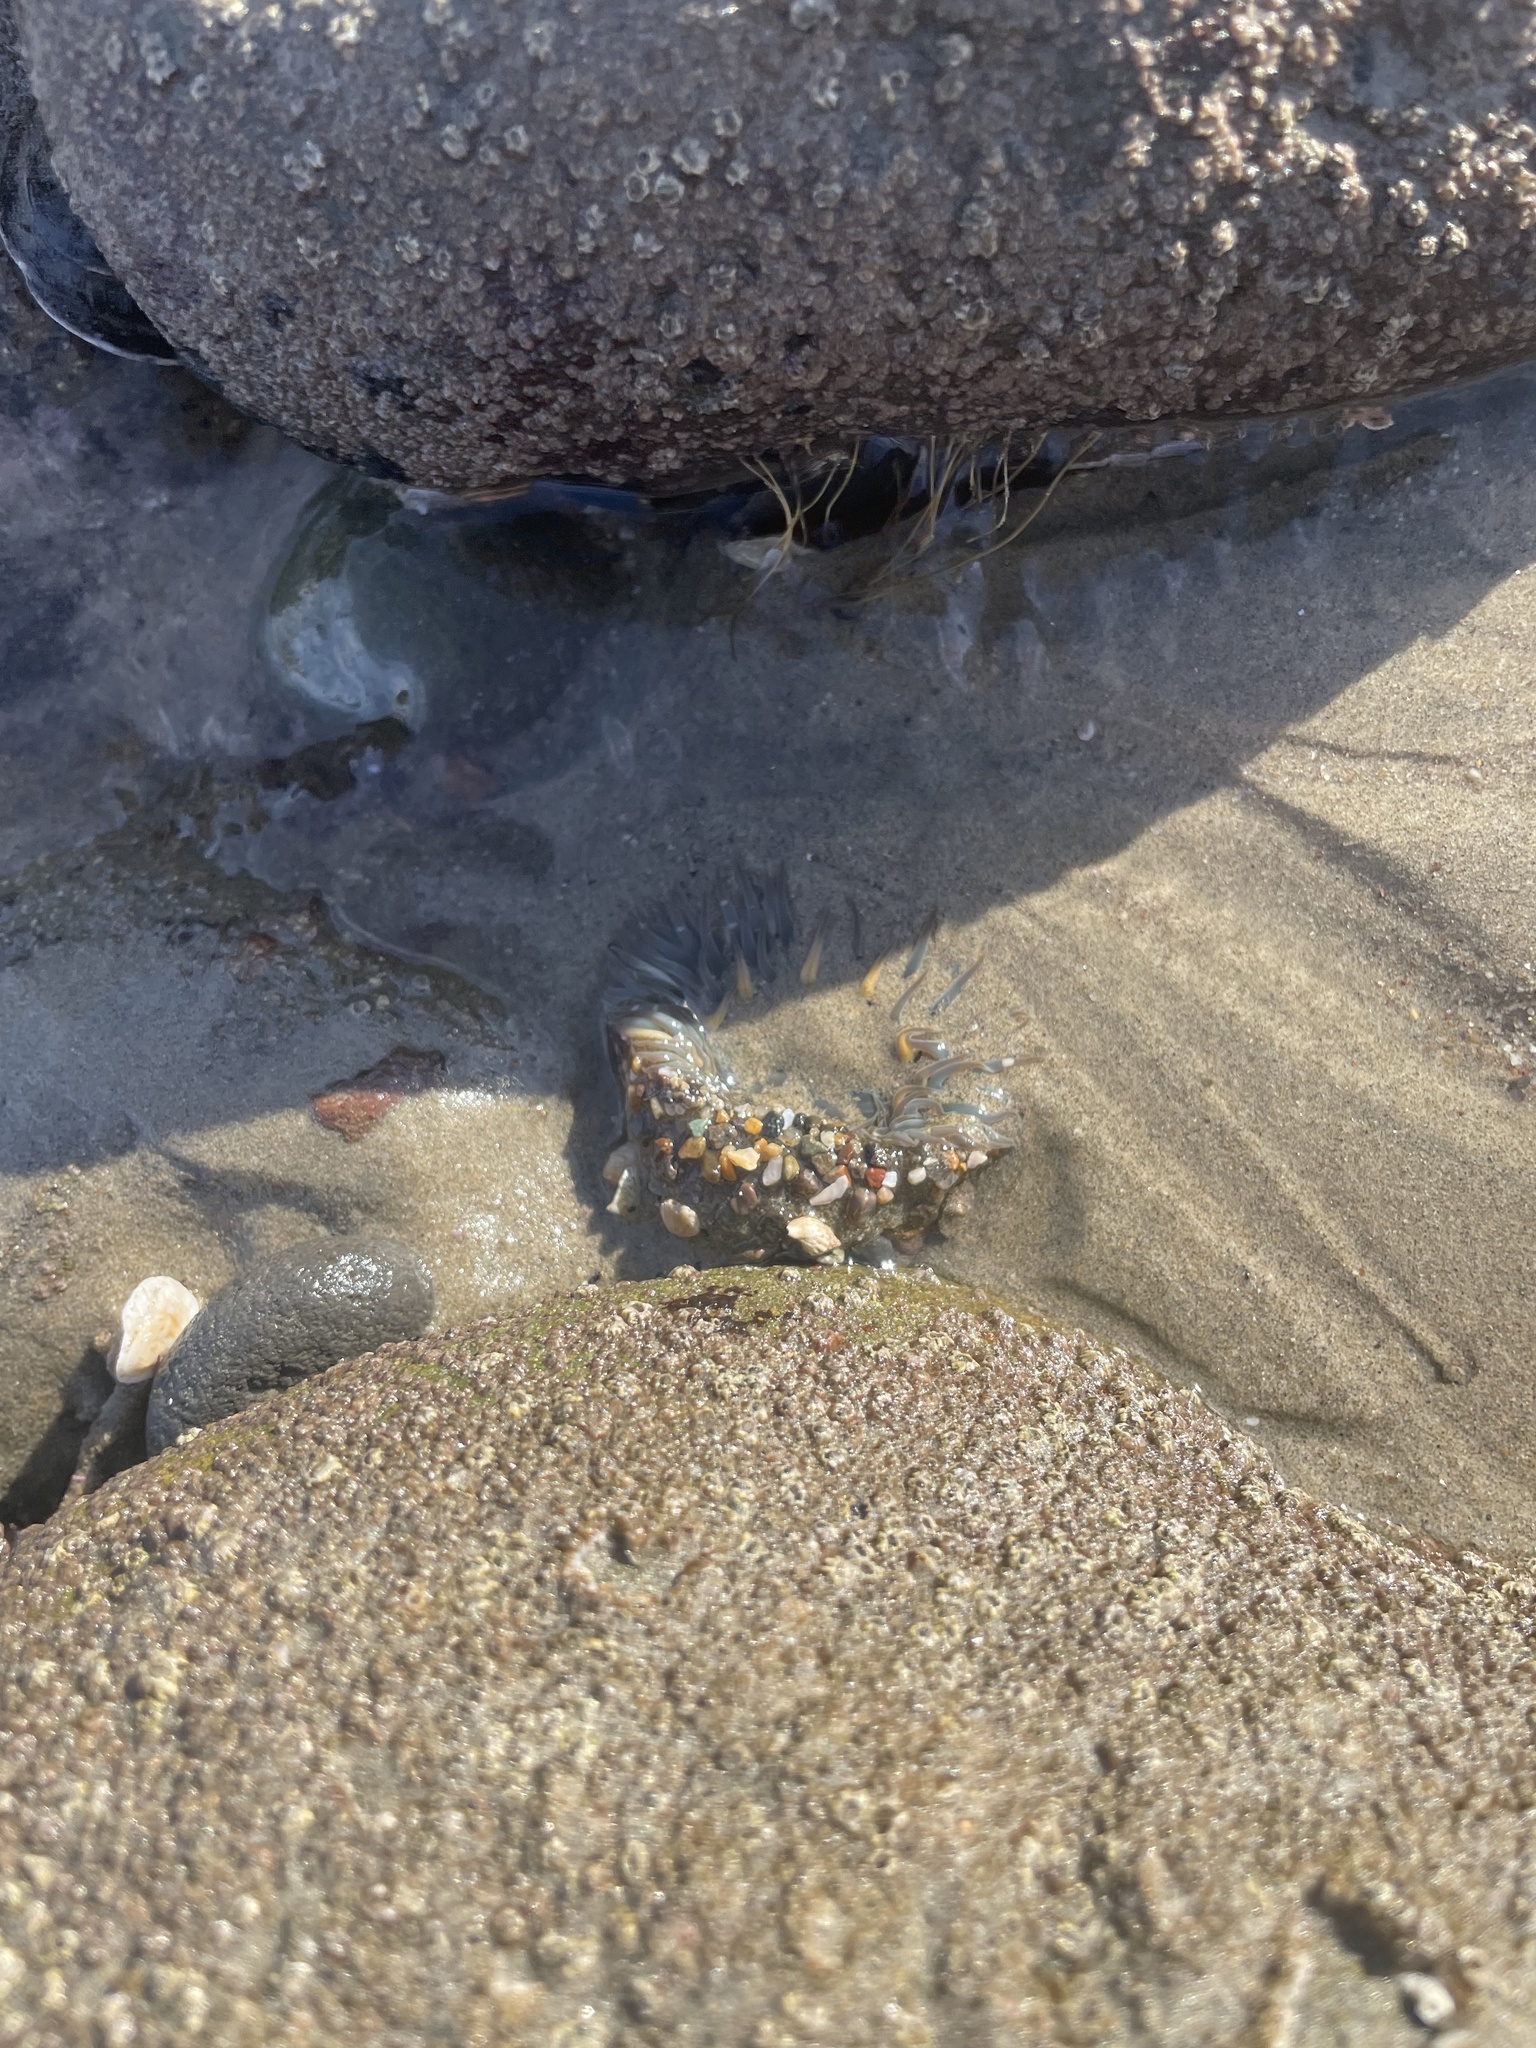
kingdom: Animalia
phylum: Cnidaria
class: Anthozoa
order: Actiniaria
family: Actiniidae
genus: Anthopleura
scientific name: Anthopleura sola
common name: Sun anemone
